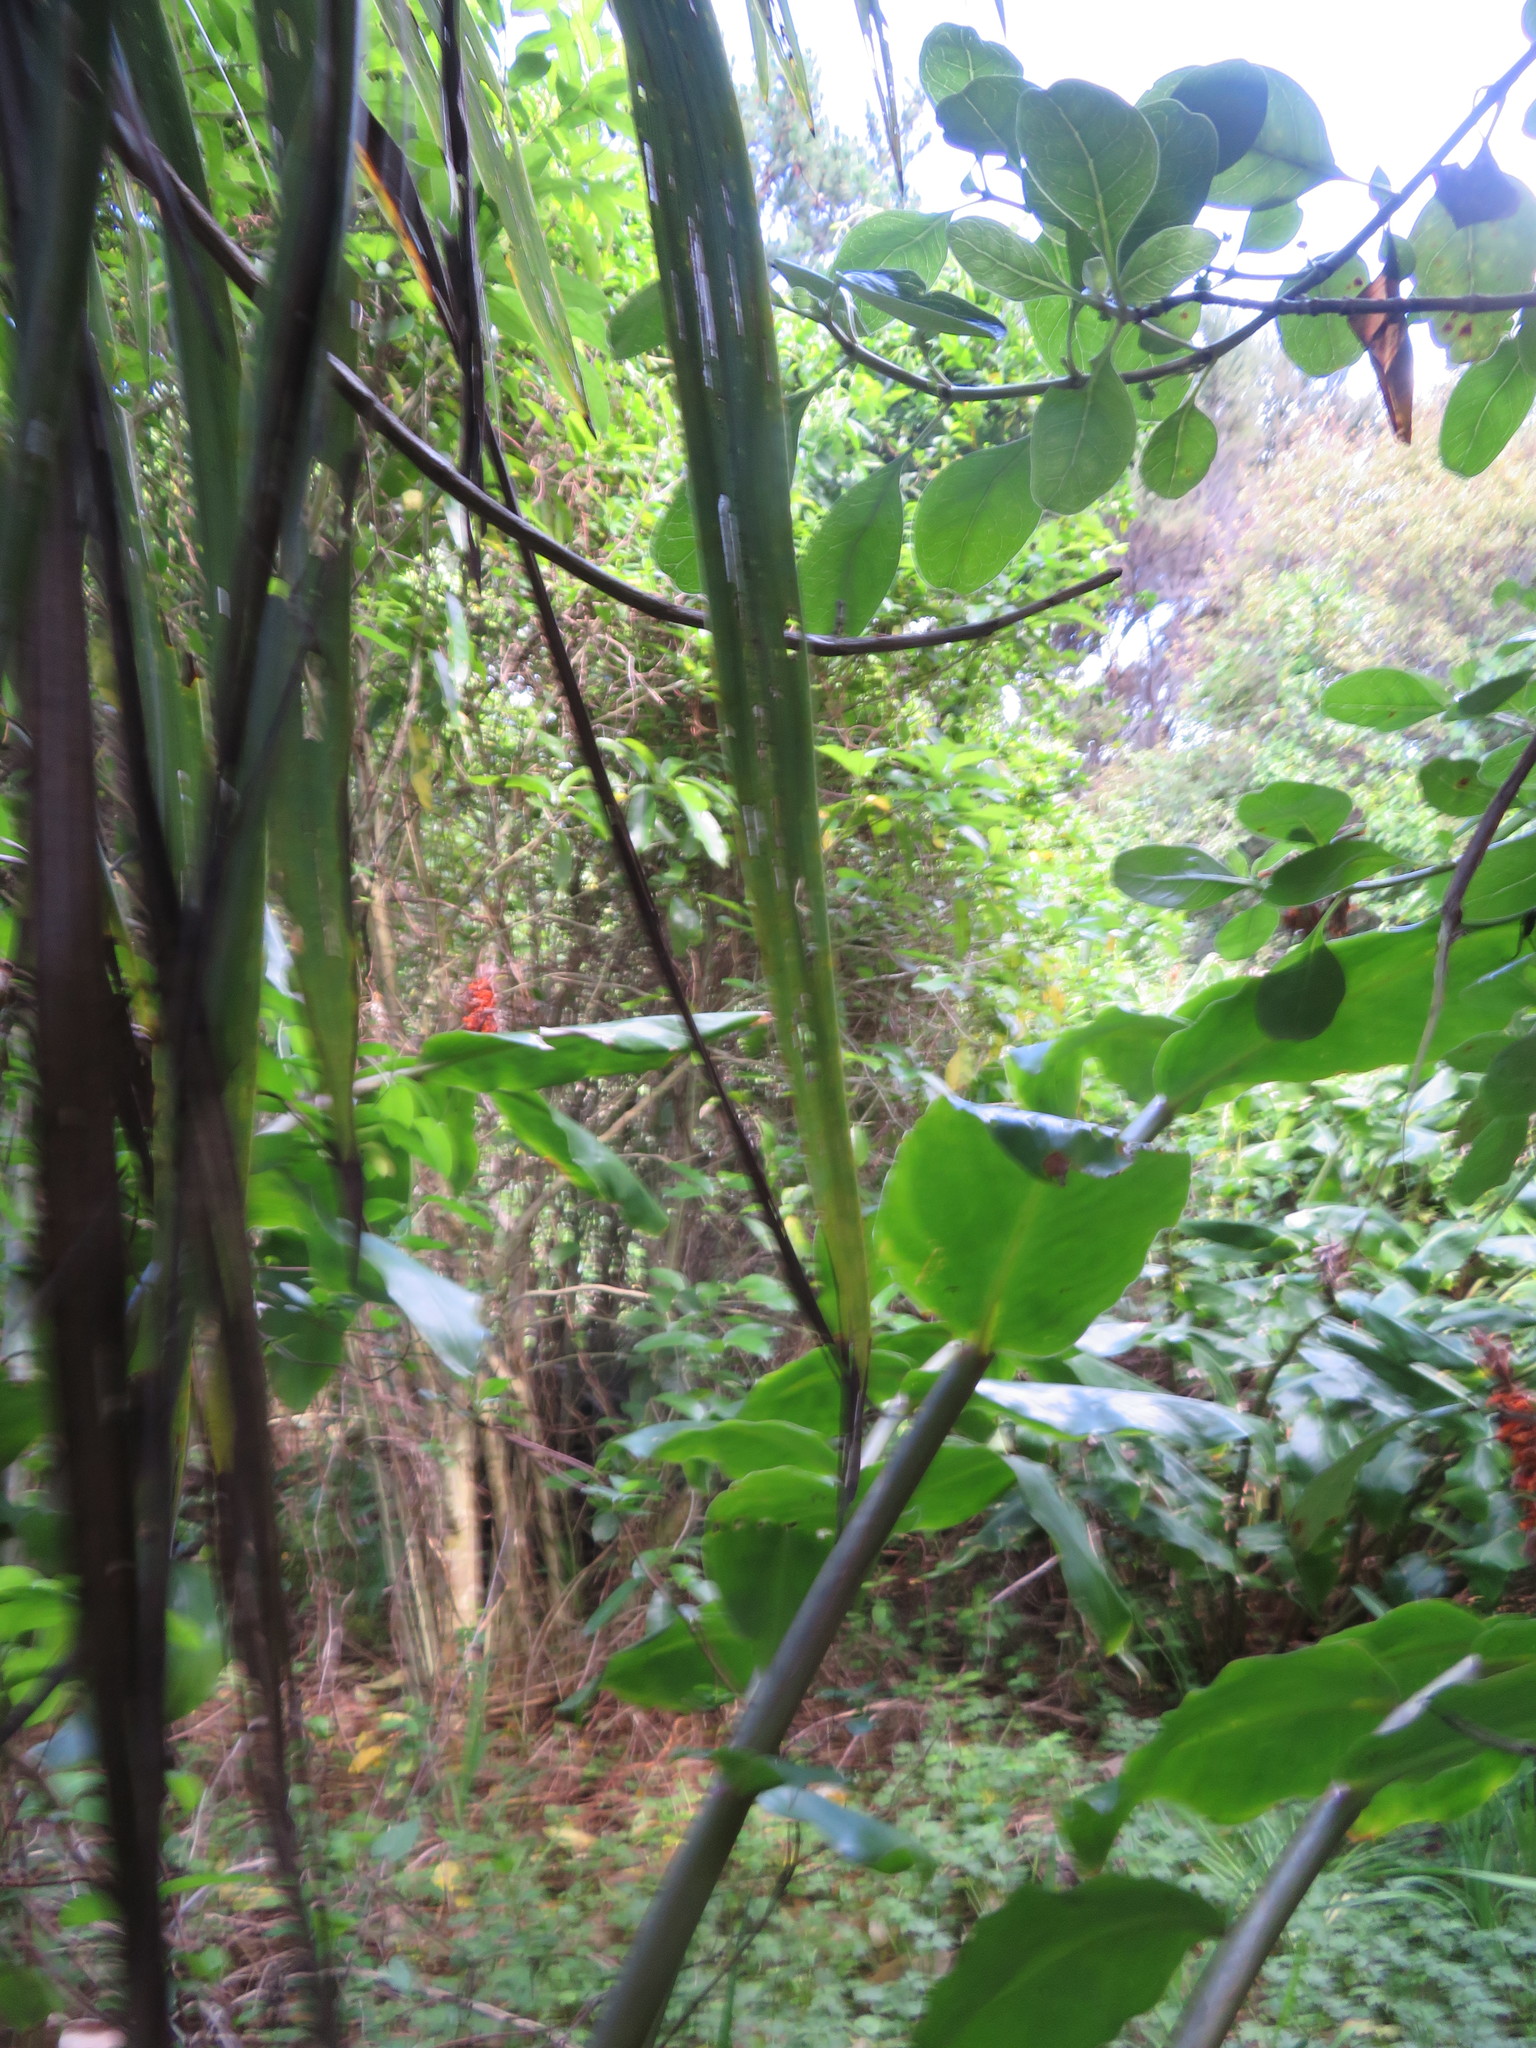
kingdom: Plantae
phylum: Tracheophyta
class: Magnoliopsida
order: Gentianales
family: Rubiaceae
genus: Coprosma
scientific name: Coprosma repens
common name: Tree bedstraw
